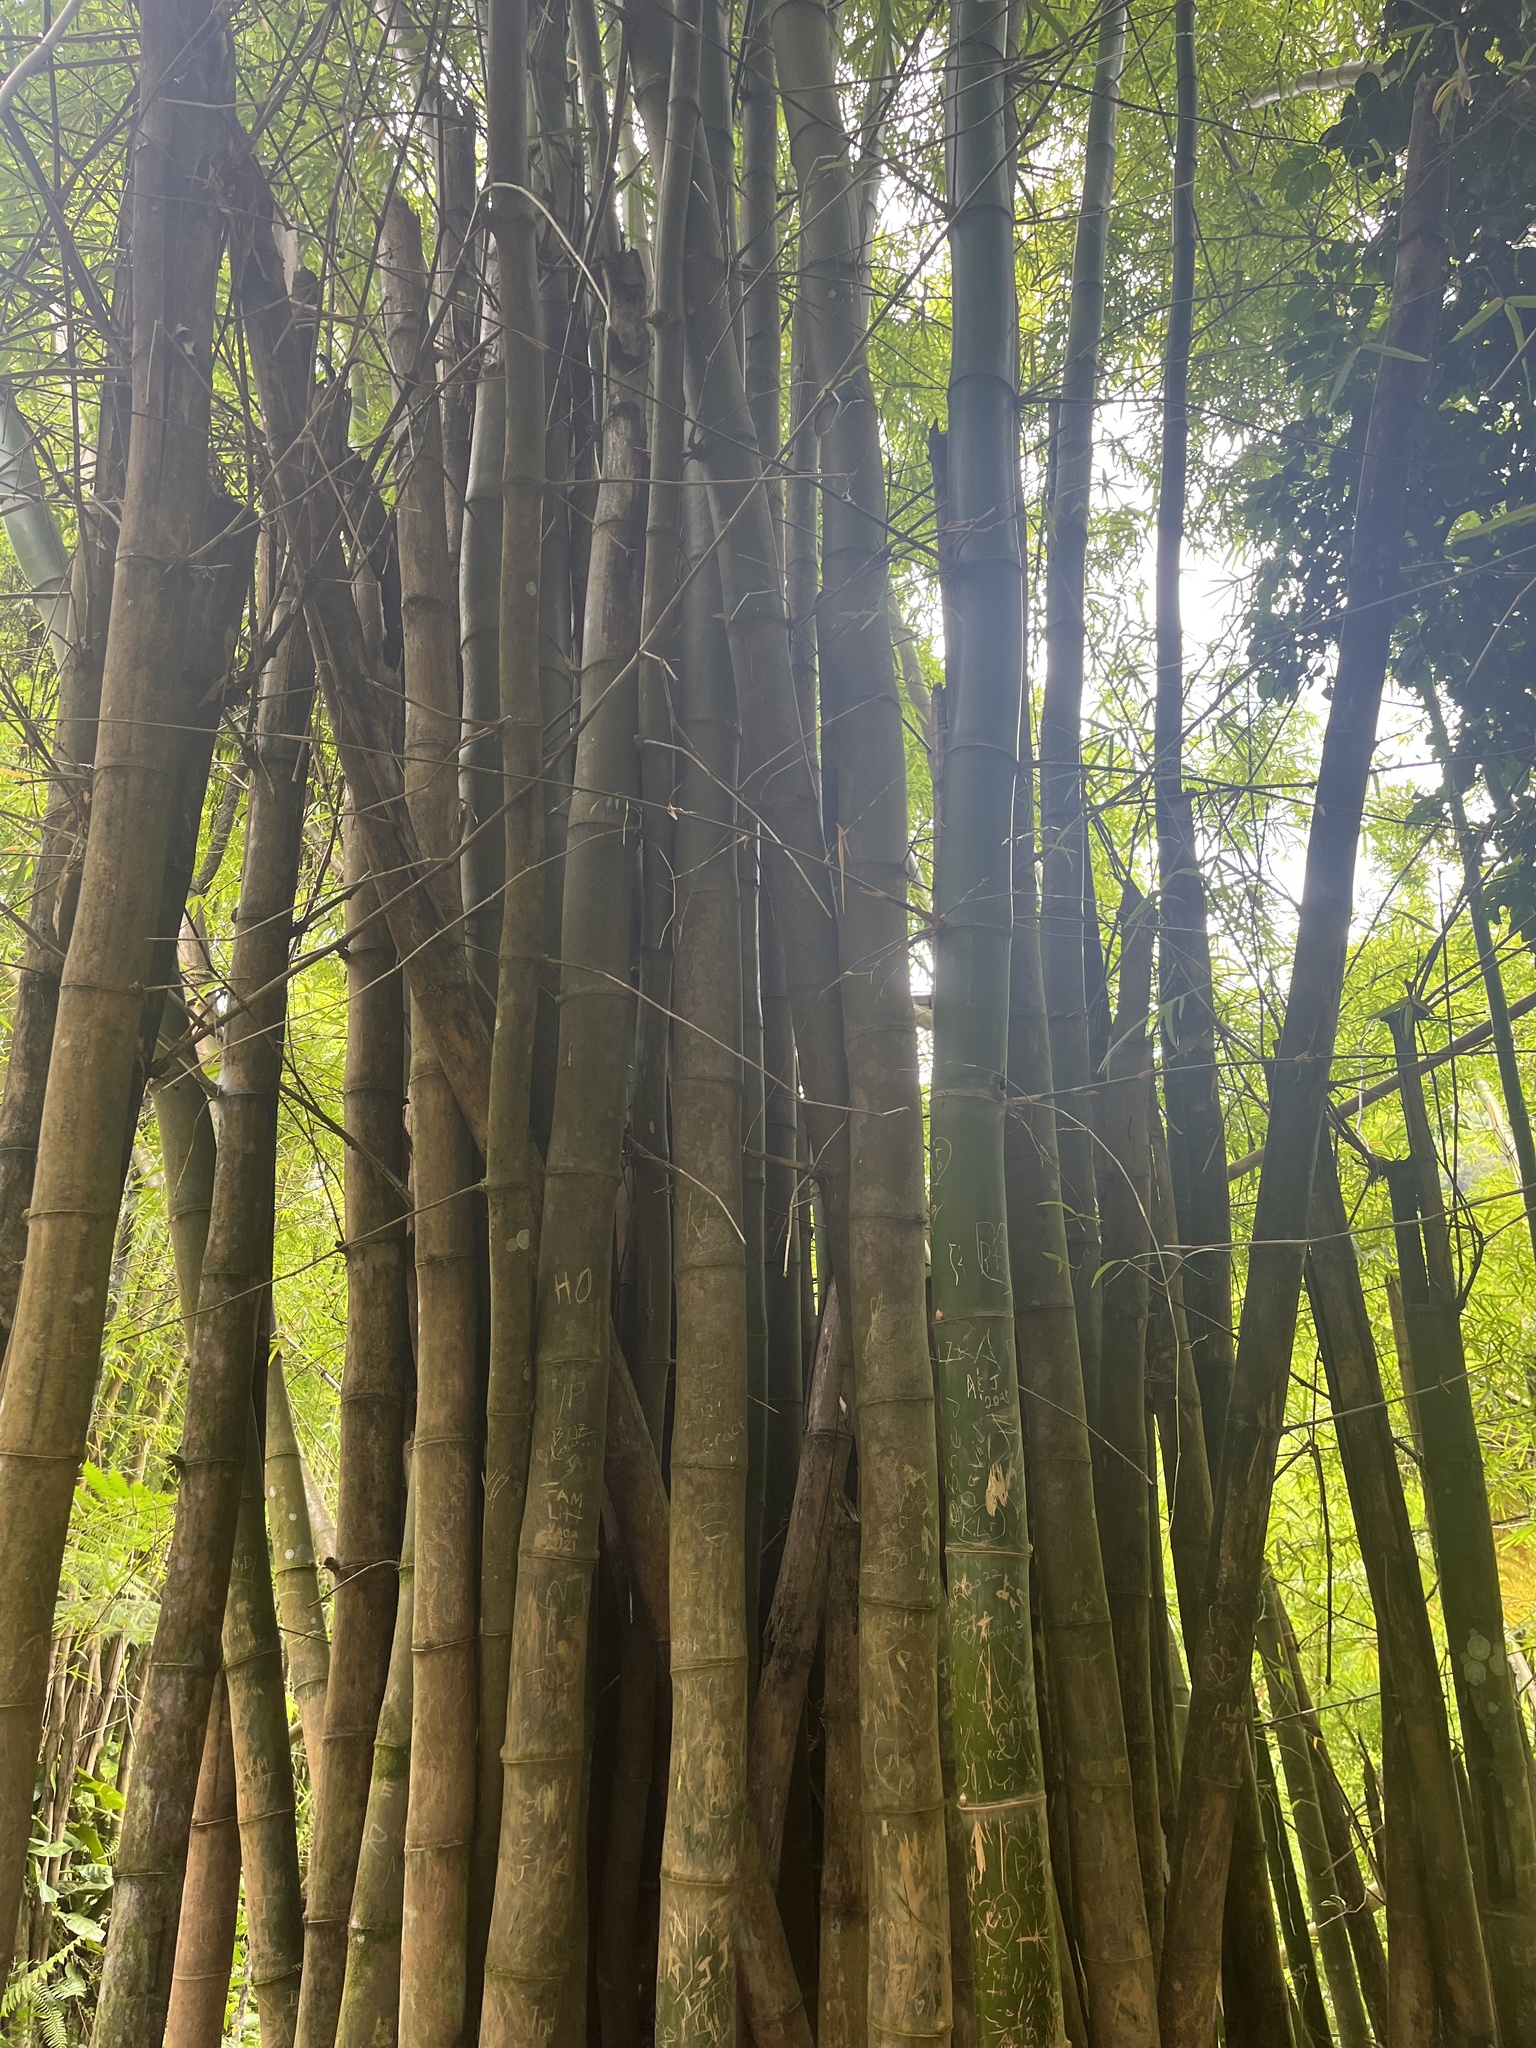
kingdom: Plantae
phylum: Tracheophyta
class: Liliopsida
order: Poales
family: Poaceae
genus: Bambusa
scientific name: Bambusa vulgaris
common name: Common bamboo
